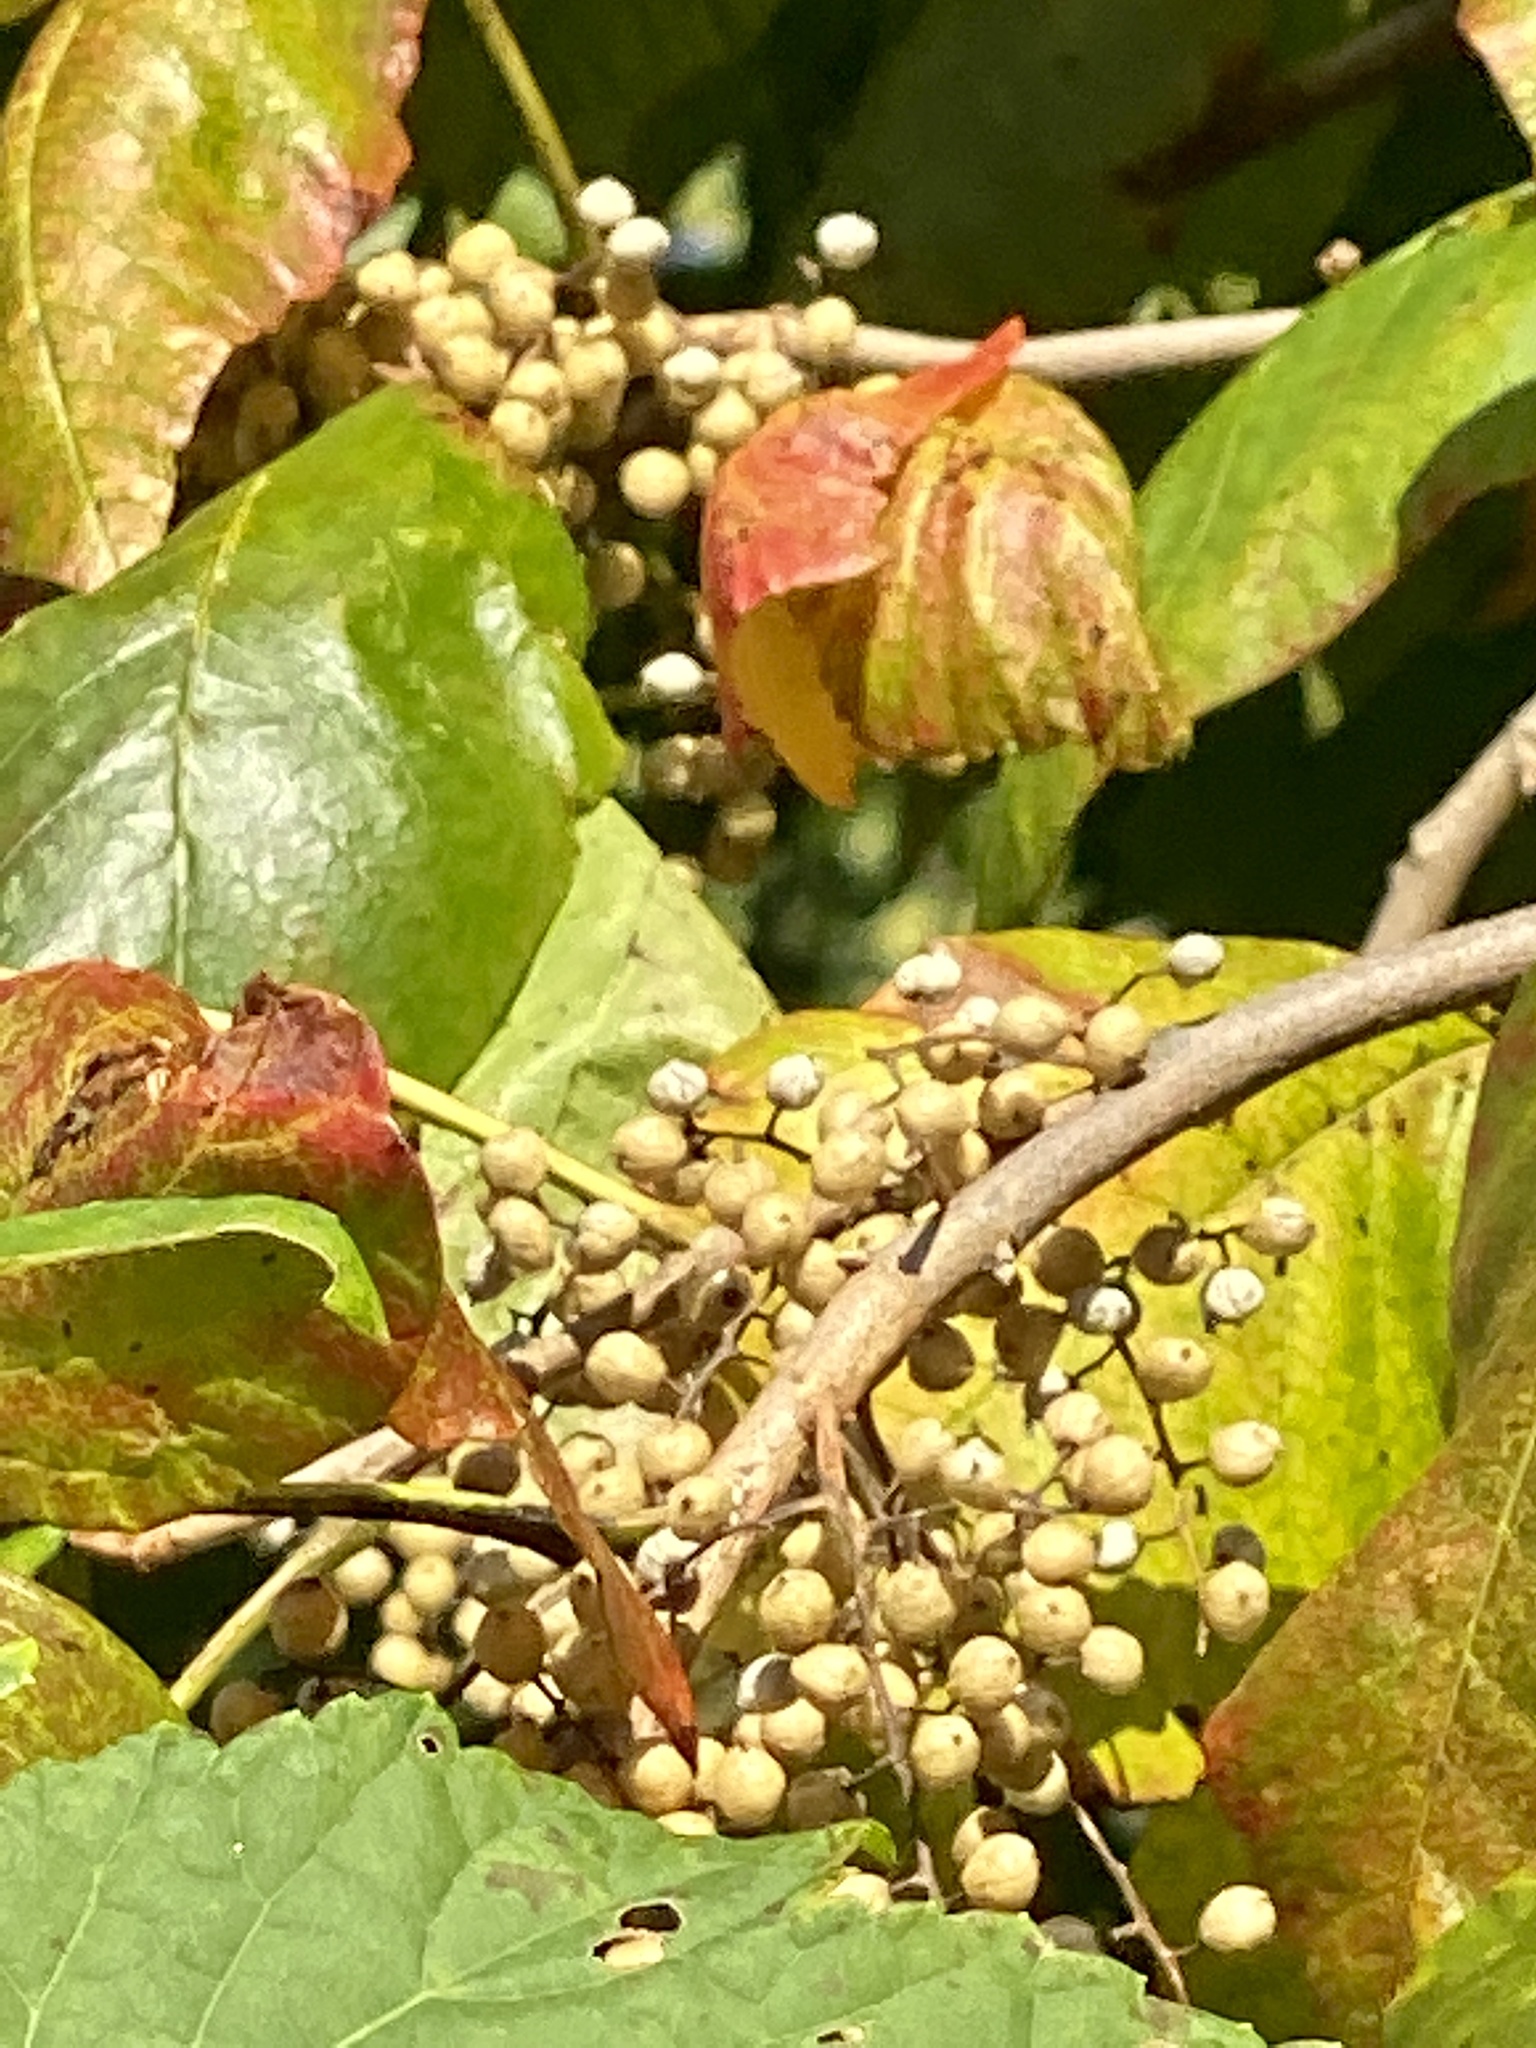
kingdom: Plantae
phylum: Tracheophyta
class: Magnoliopsida
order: Sapindales
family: Anacardiaceae
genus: Toxicodendron
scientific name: Toxicodendron radicans
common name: Poison ivy
